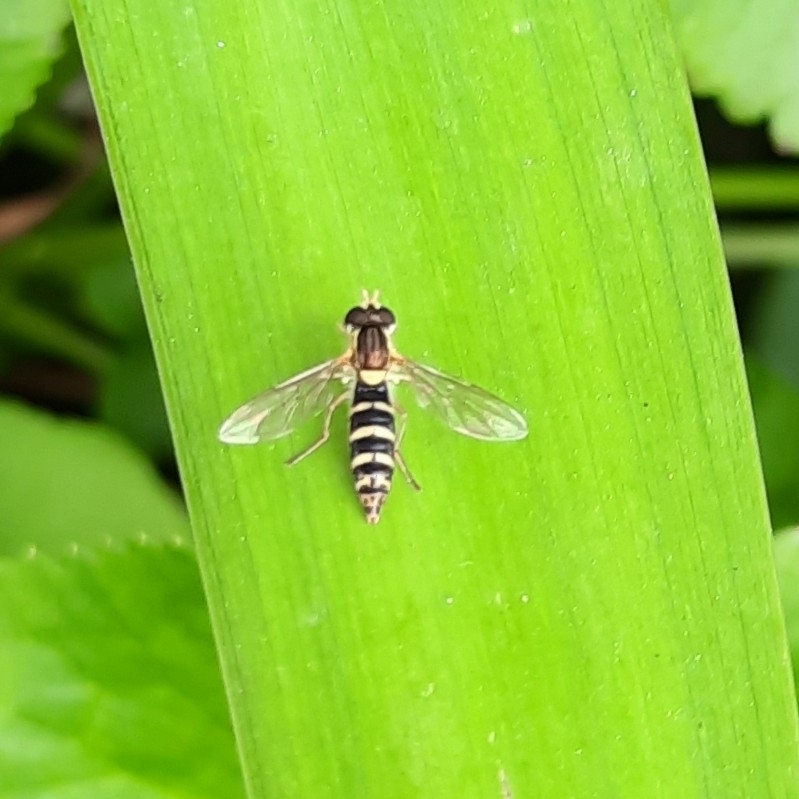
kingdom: Animalia
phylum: Arthropoda
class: Insecta
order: Diptera
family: Syrphidae
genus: Sphaerophoria
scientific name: Sphaerophoria
